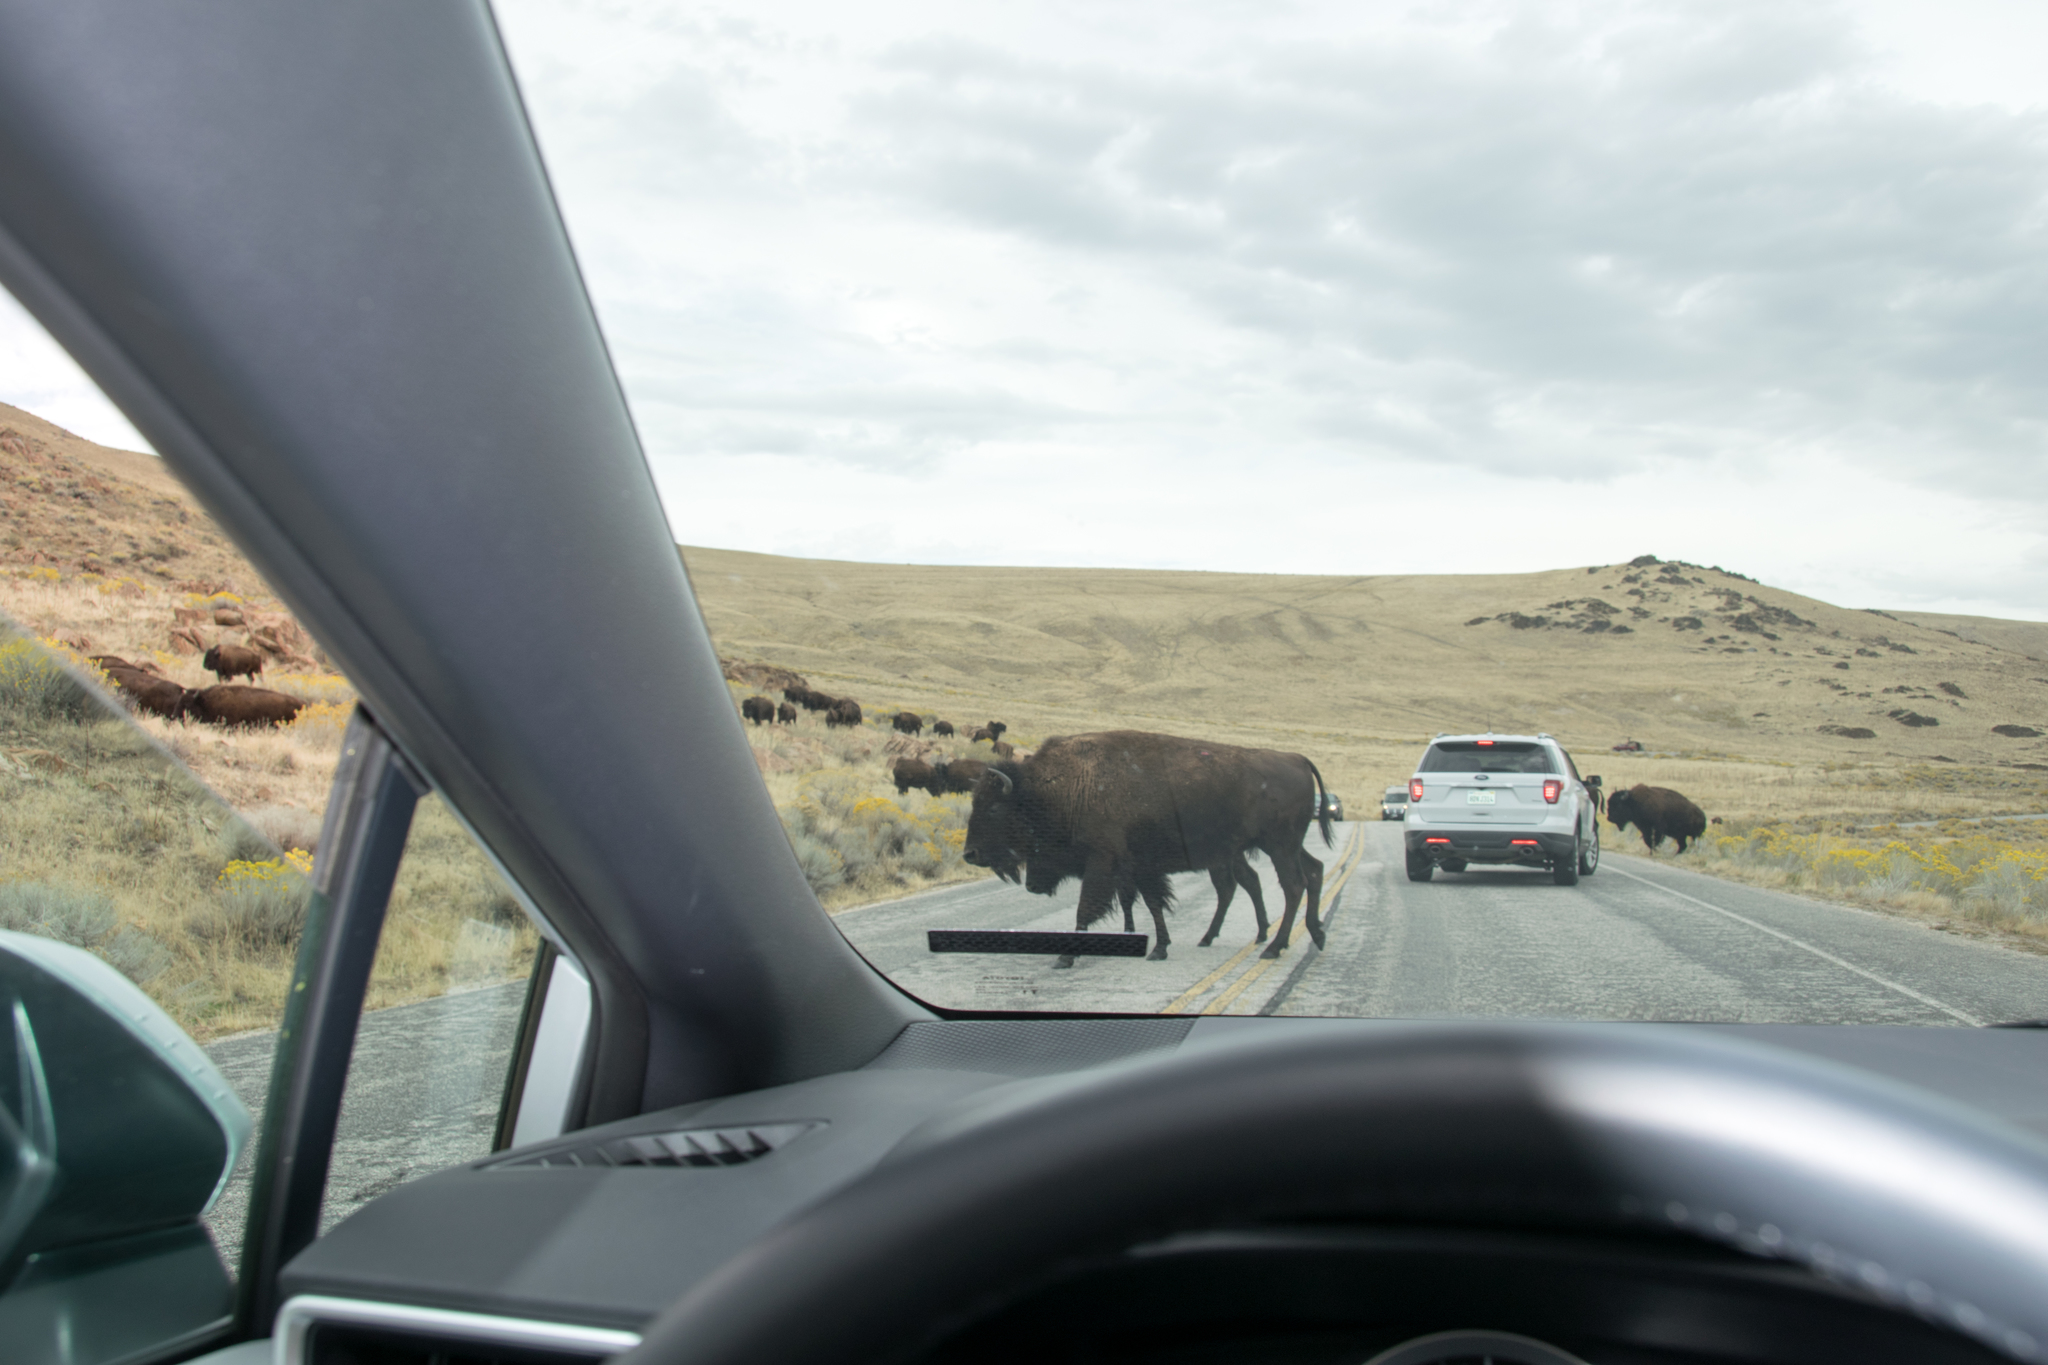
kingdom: Animalia
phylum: Chordata
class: Mammalia
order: Artiodactyla
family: Bovidae
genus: Bison
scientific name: Bison bison
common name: American bison
